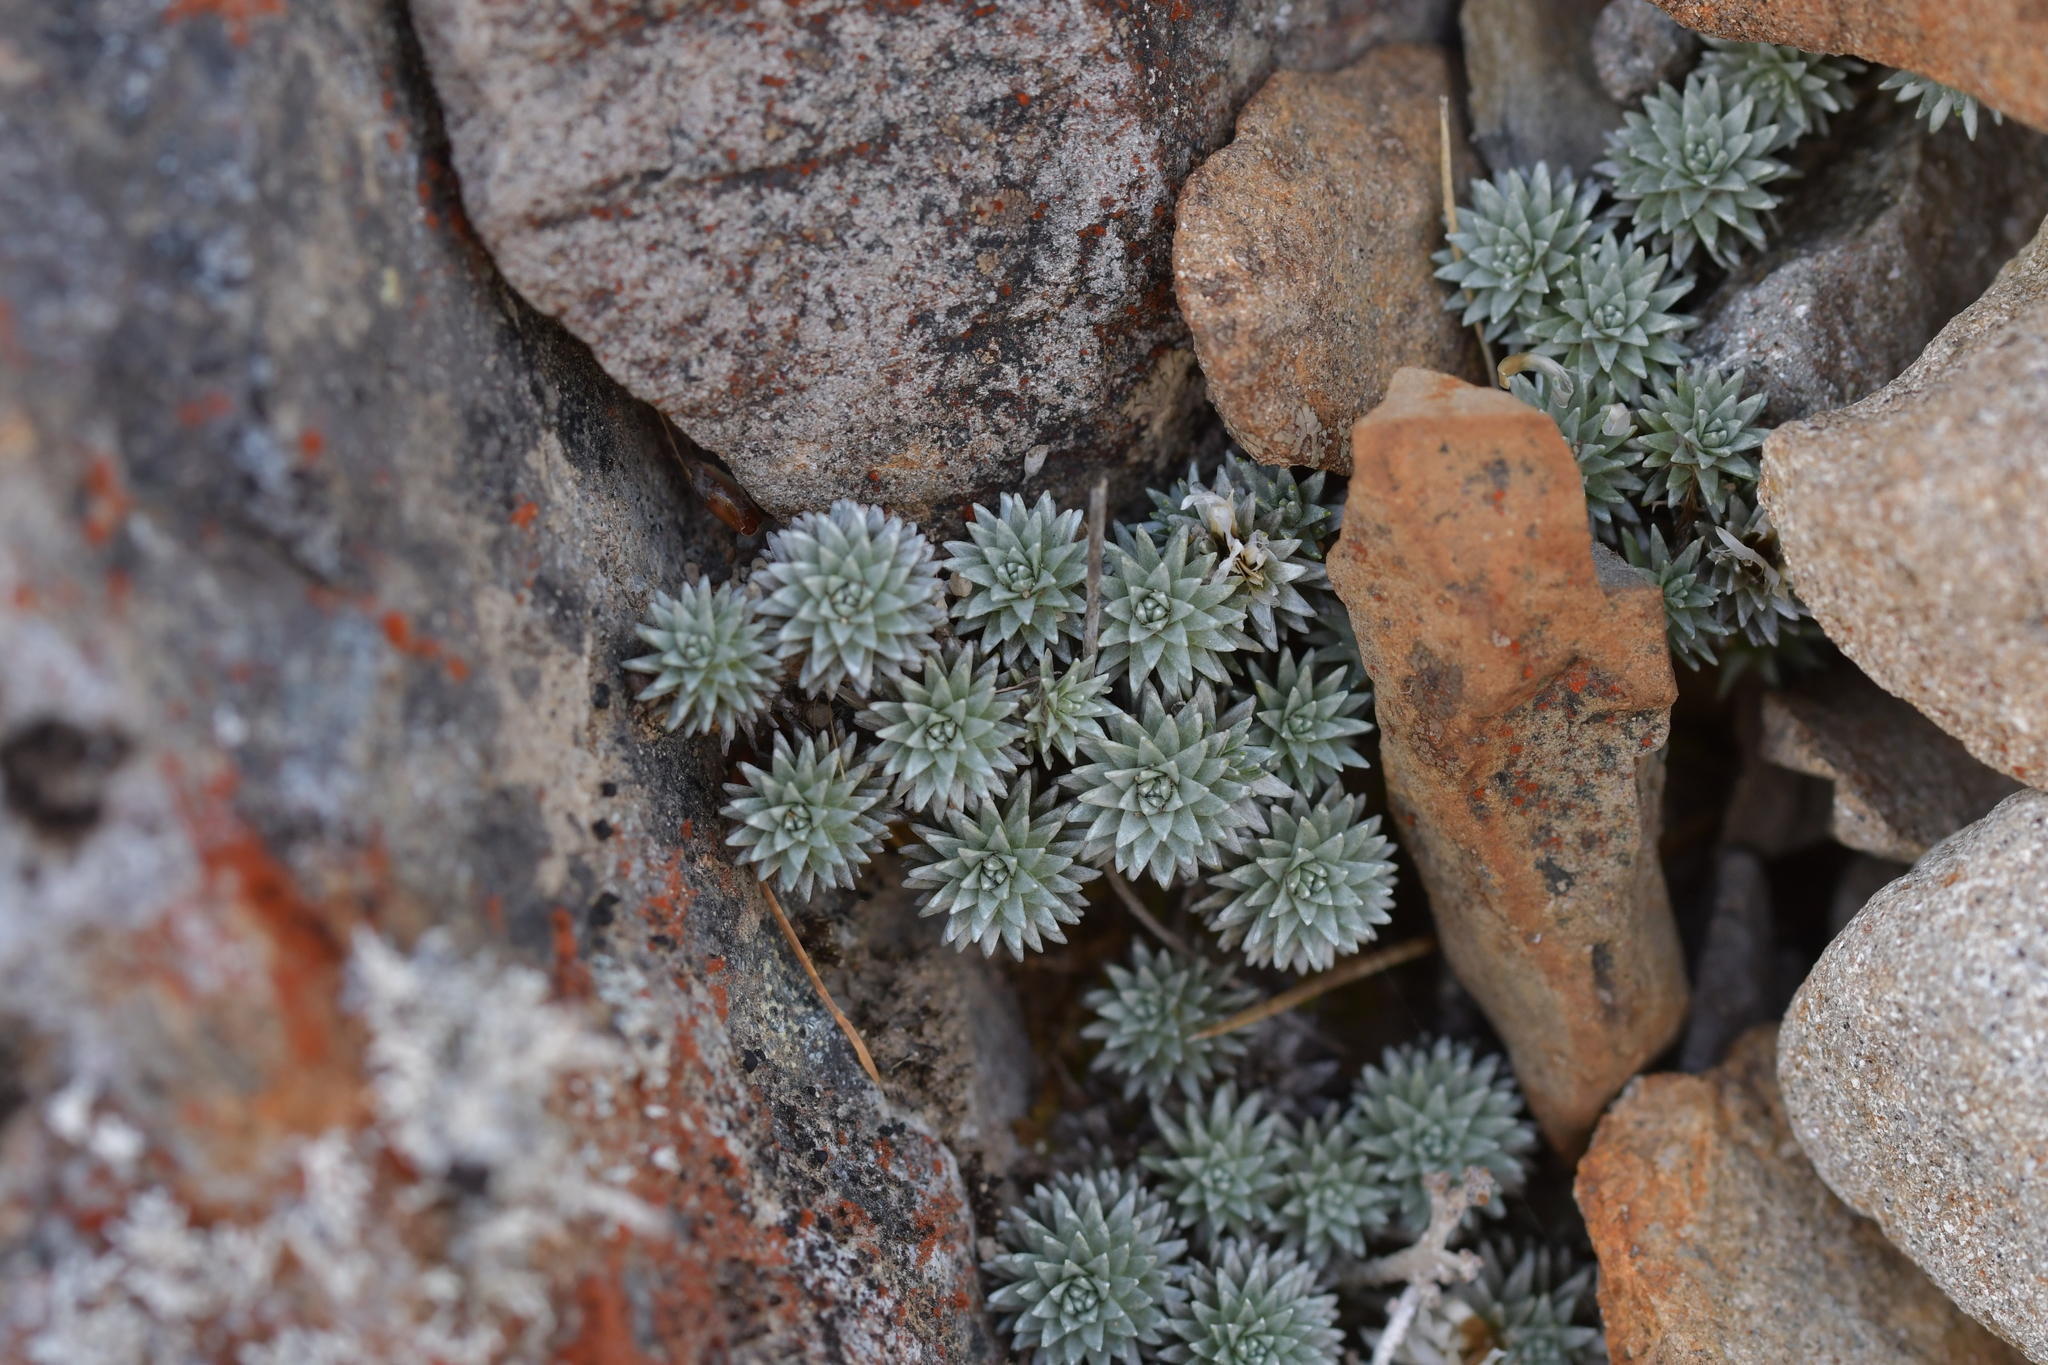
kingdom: Plantae
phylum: Tracheophyta
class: Magnoliopsida
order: Asterales
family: Asteraceae
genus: Raoulia
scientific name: Raoulia grandiflora
